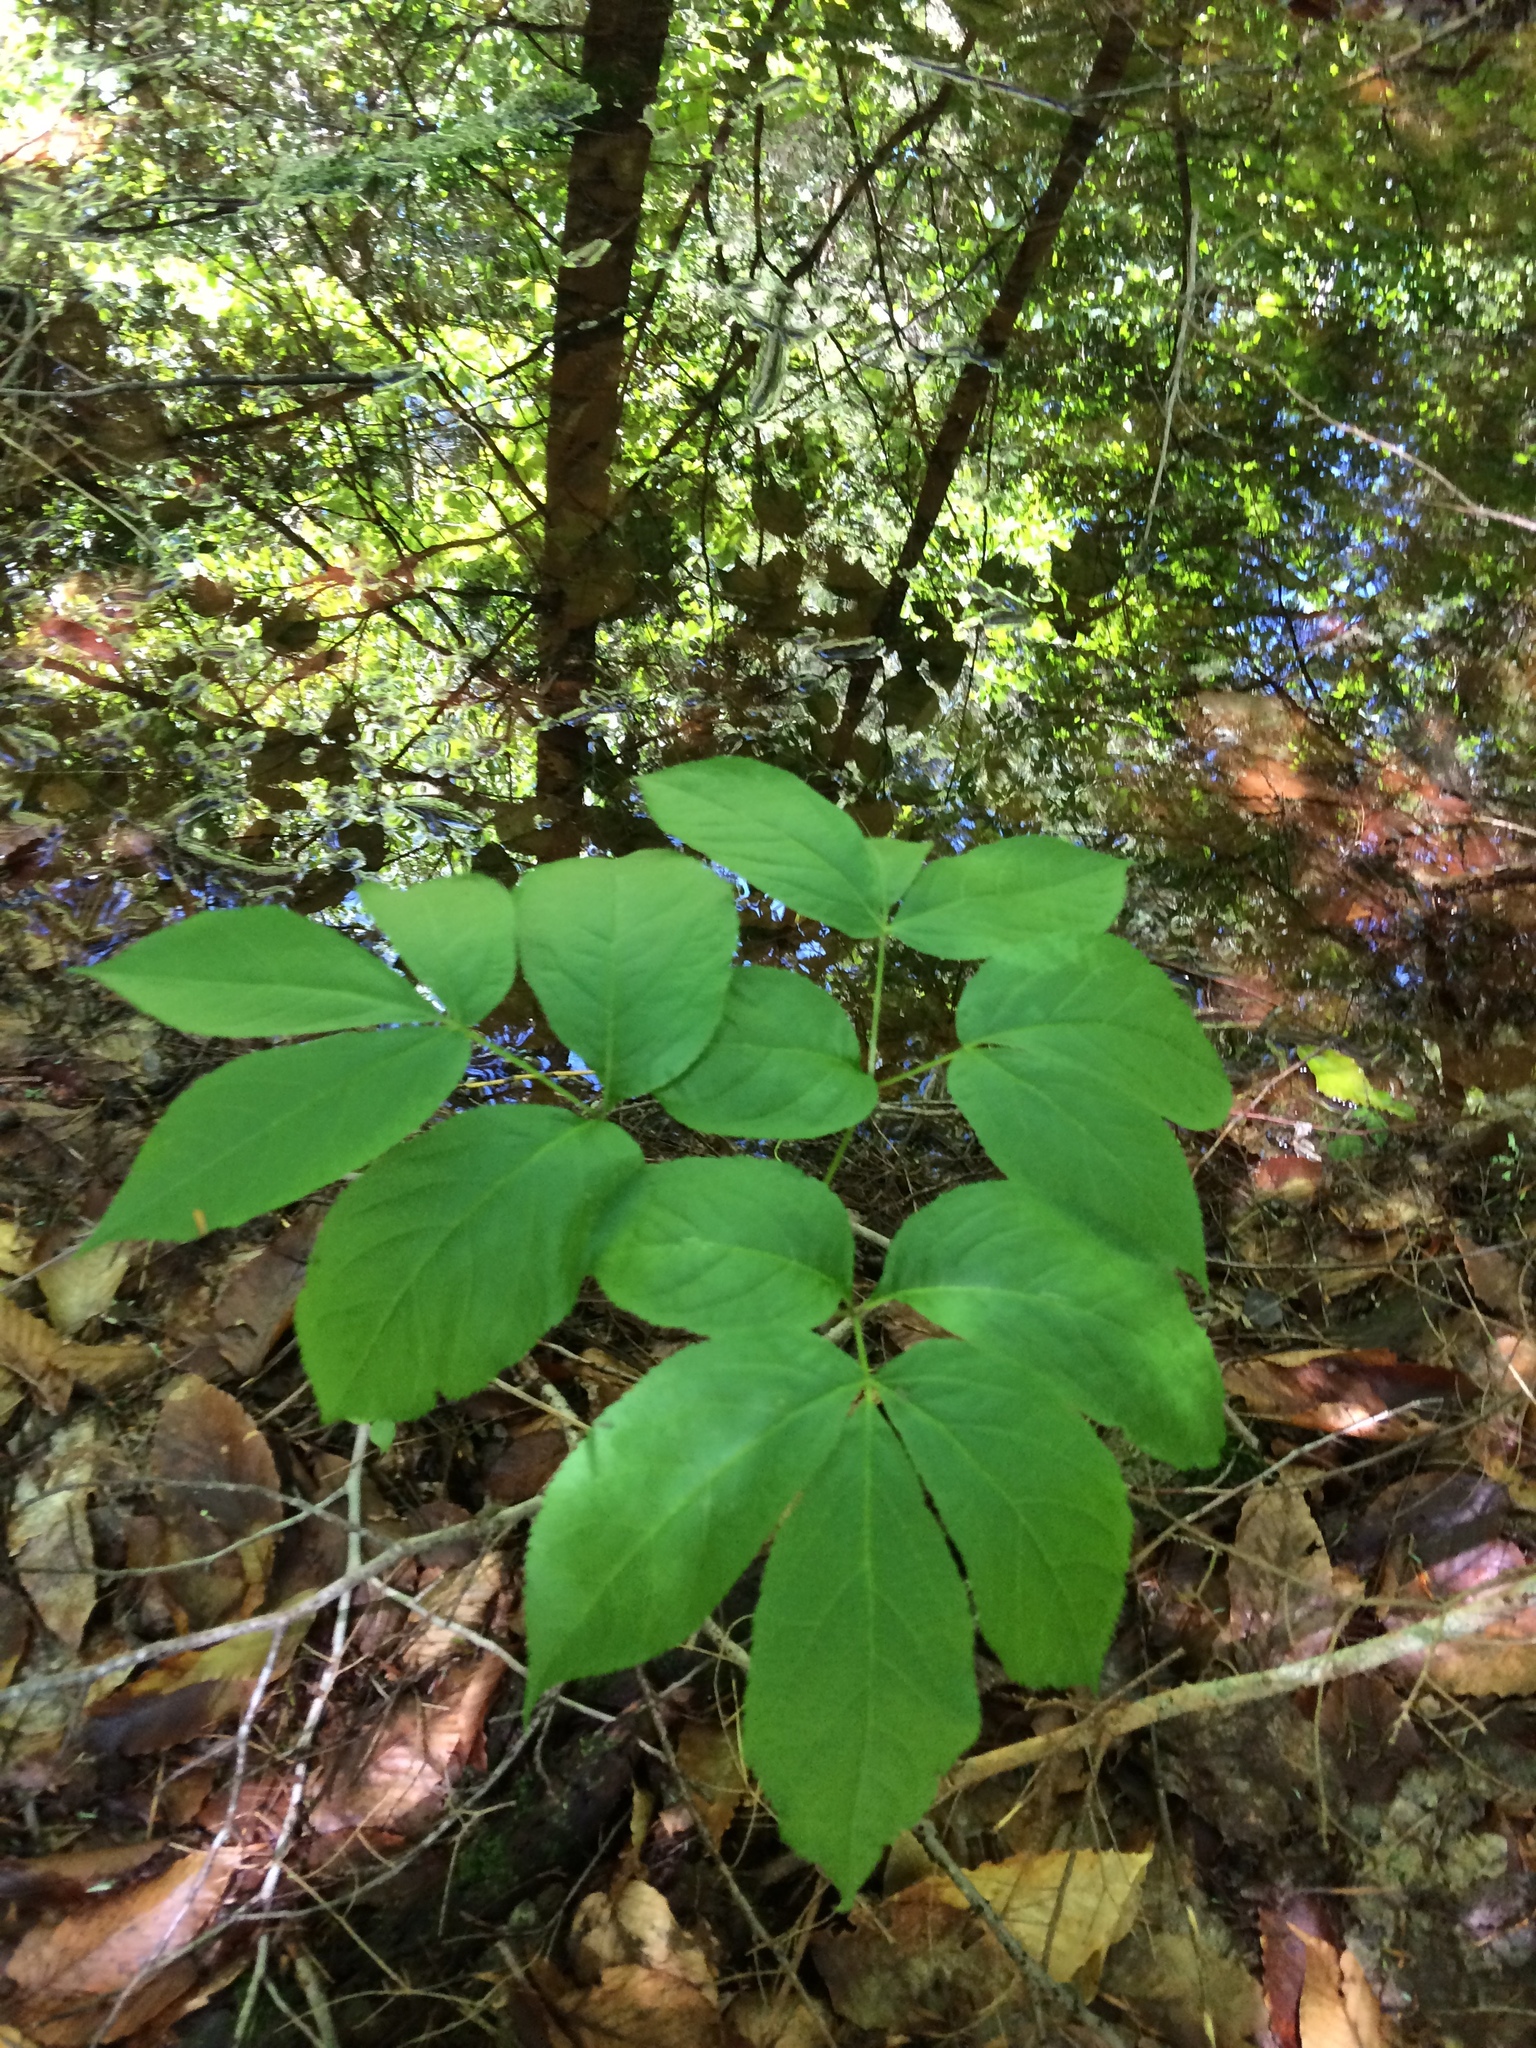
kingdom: Plantae
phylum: Tracheophyta
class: Magnoliopsida
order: Apiales
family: Araliaceae
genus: Aralia
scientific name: Aralia nudicaulis
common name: Wild sarsaparilla
